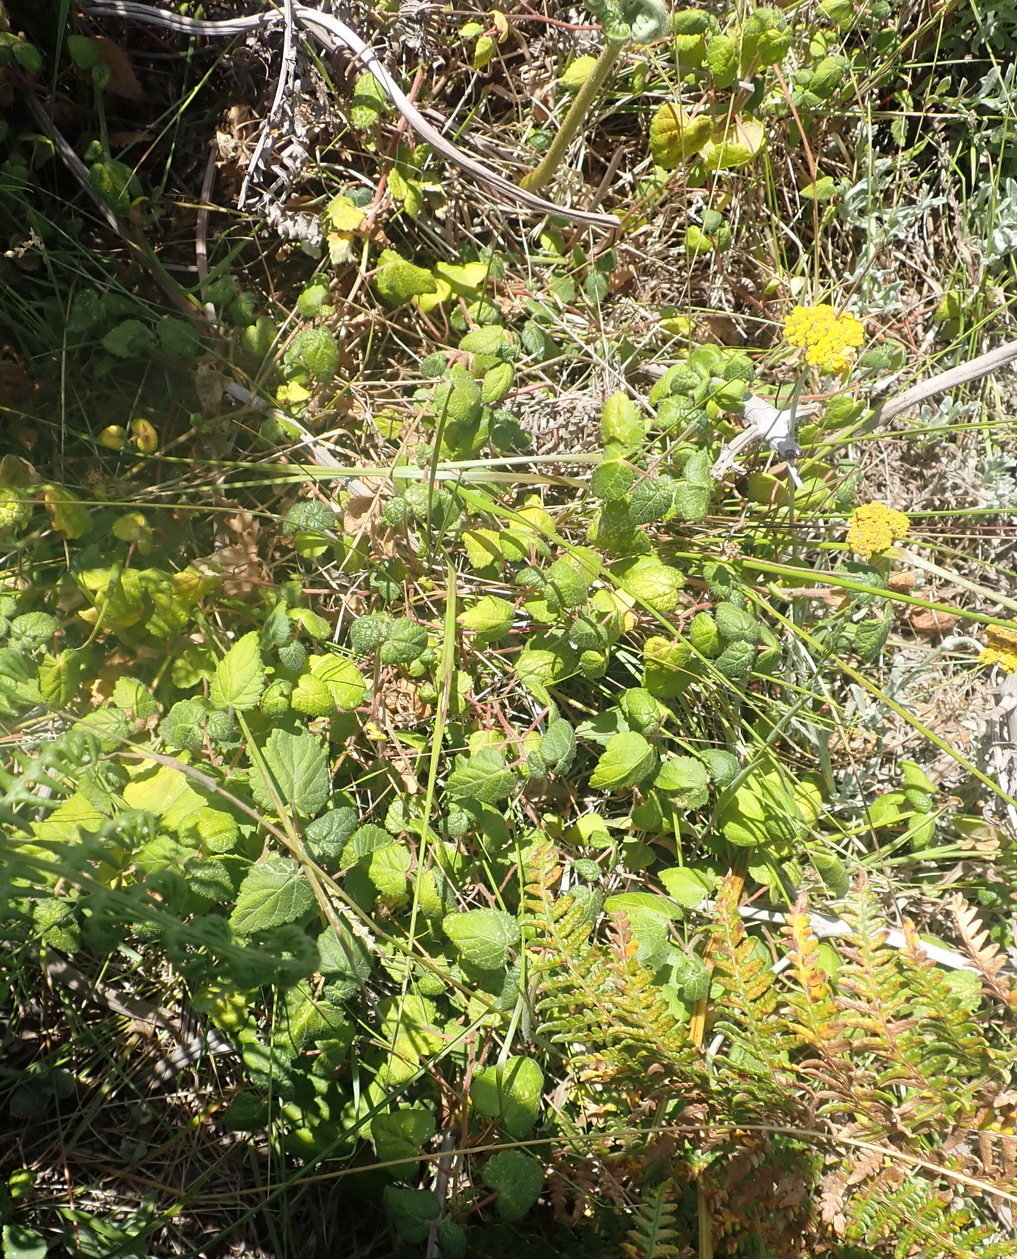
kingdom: Plantae
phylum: Tracheophyta
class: Magnoliopsida
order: Malpighiales
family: Euphorbiaceae
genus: Bernardia
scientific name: Bernardia corensis
